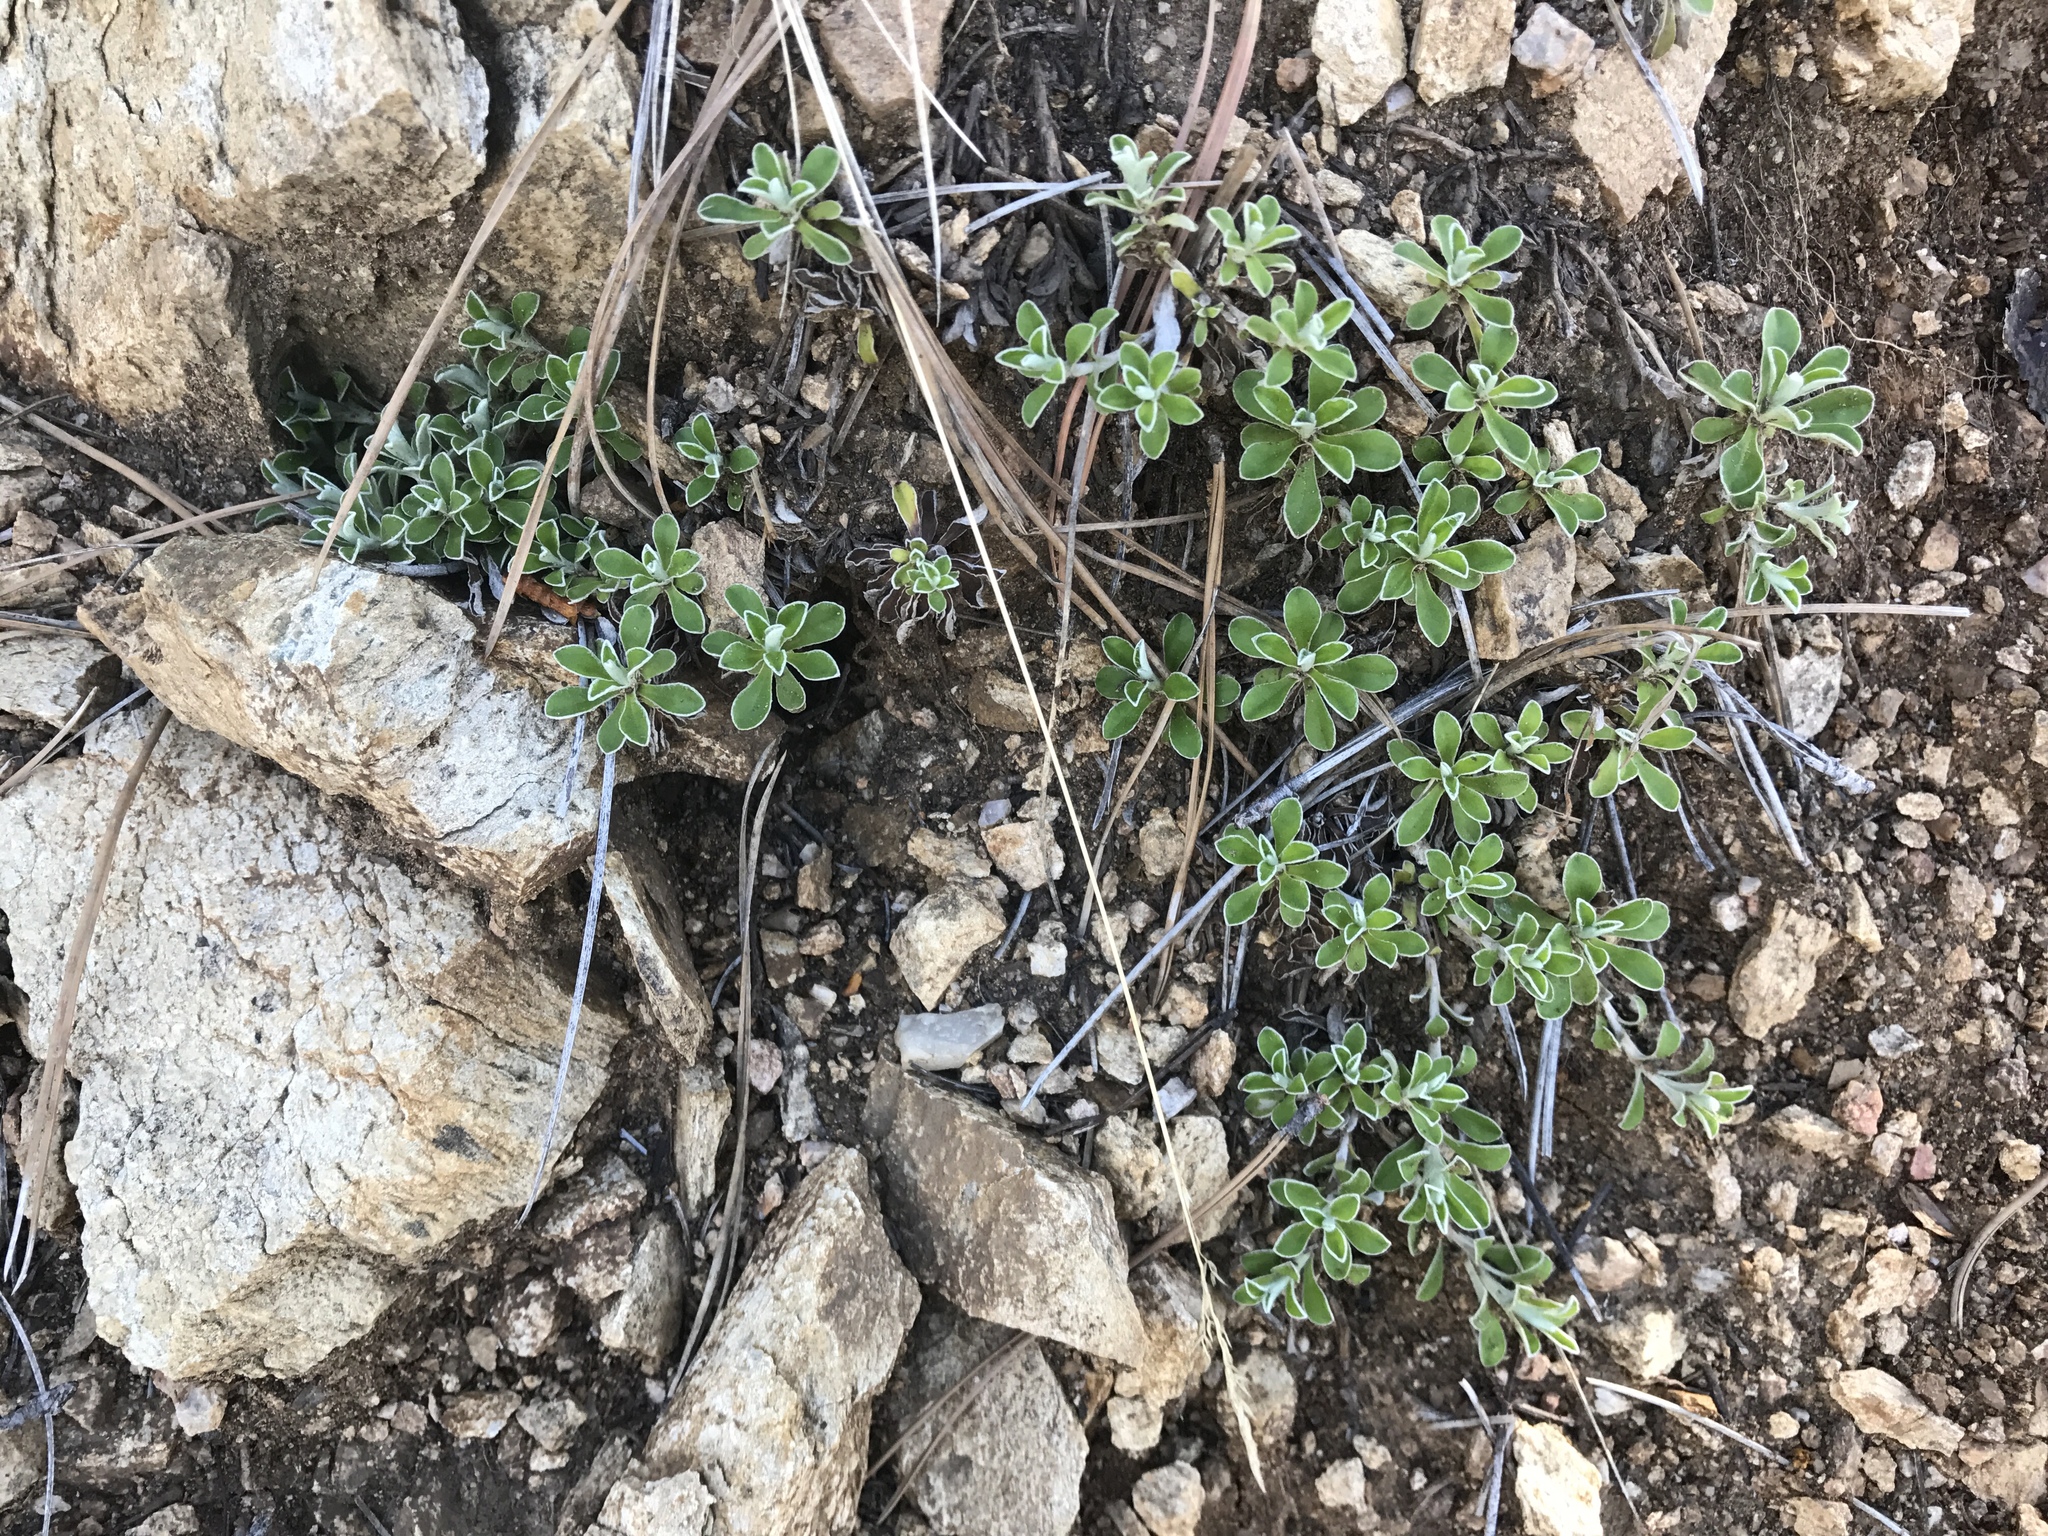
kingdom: Plantae
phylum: Tracheophyta
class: Magnoliopsida
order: Asterales
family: Asteraceae
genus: Antennaria
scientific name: Antennaria marginata
